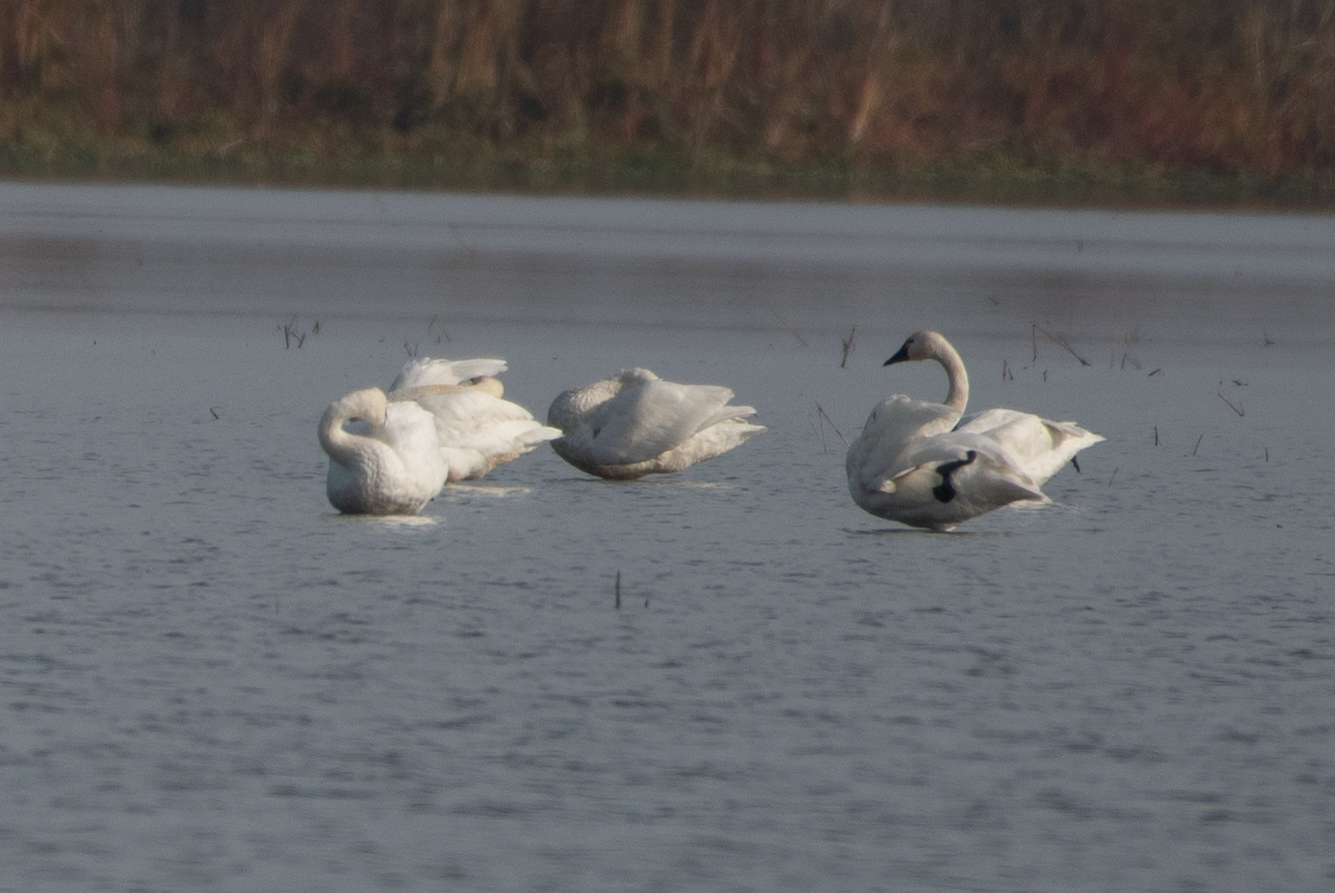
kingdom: Animalia
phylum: Chordata
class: Aves
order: Anseriformes
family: Anatidae
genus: Cygnus
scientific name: Cygnus columbianus
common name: Tundra swan
